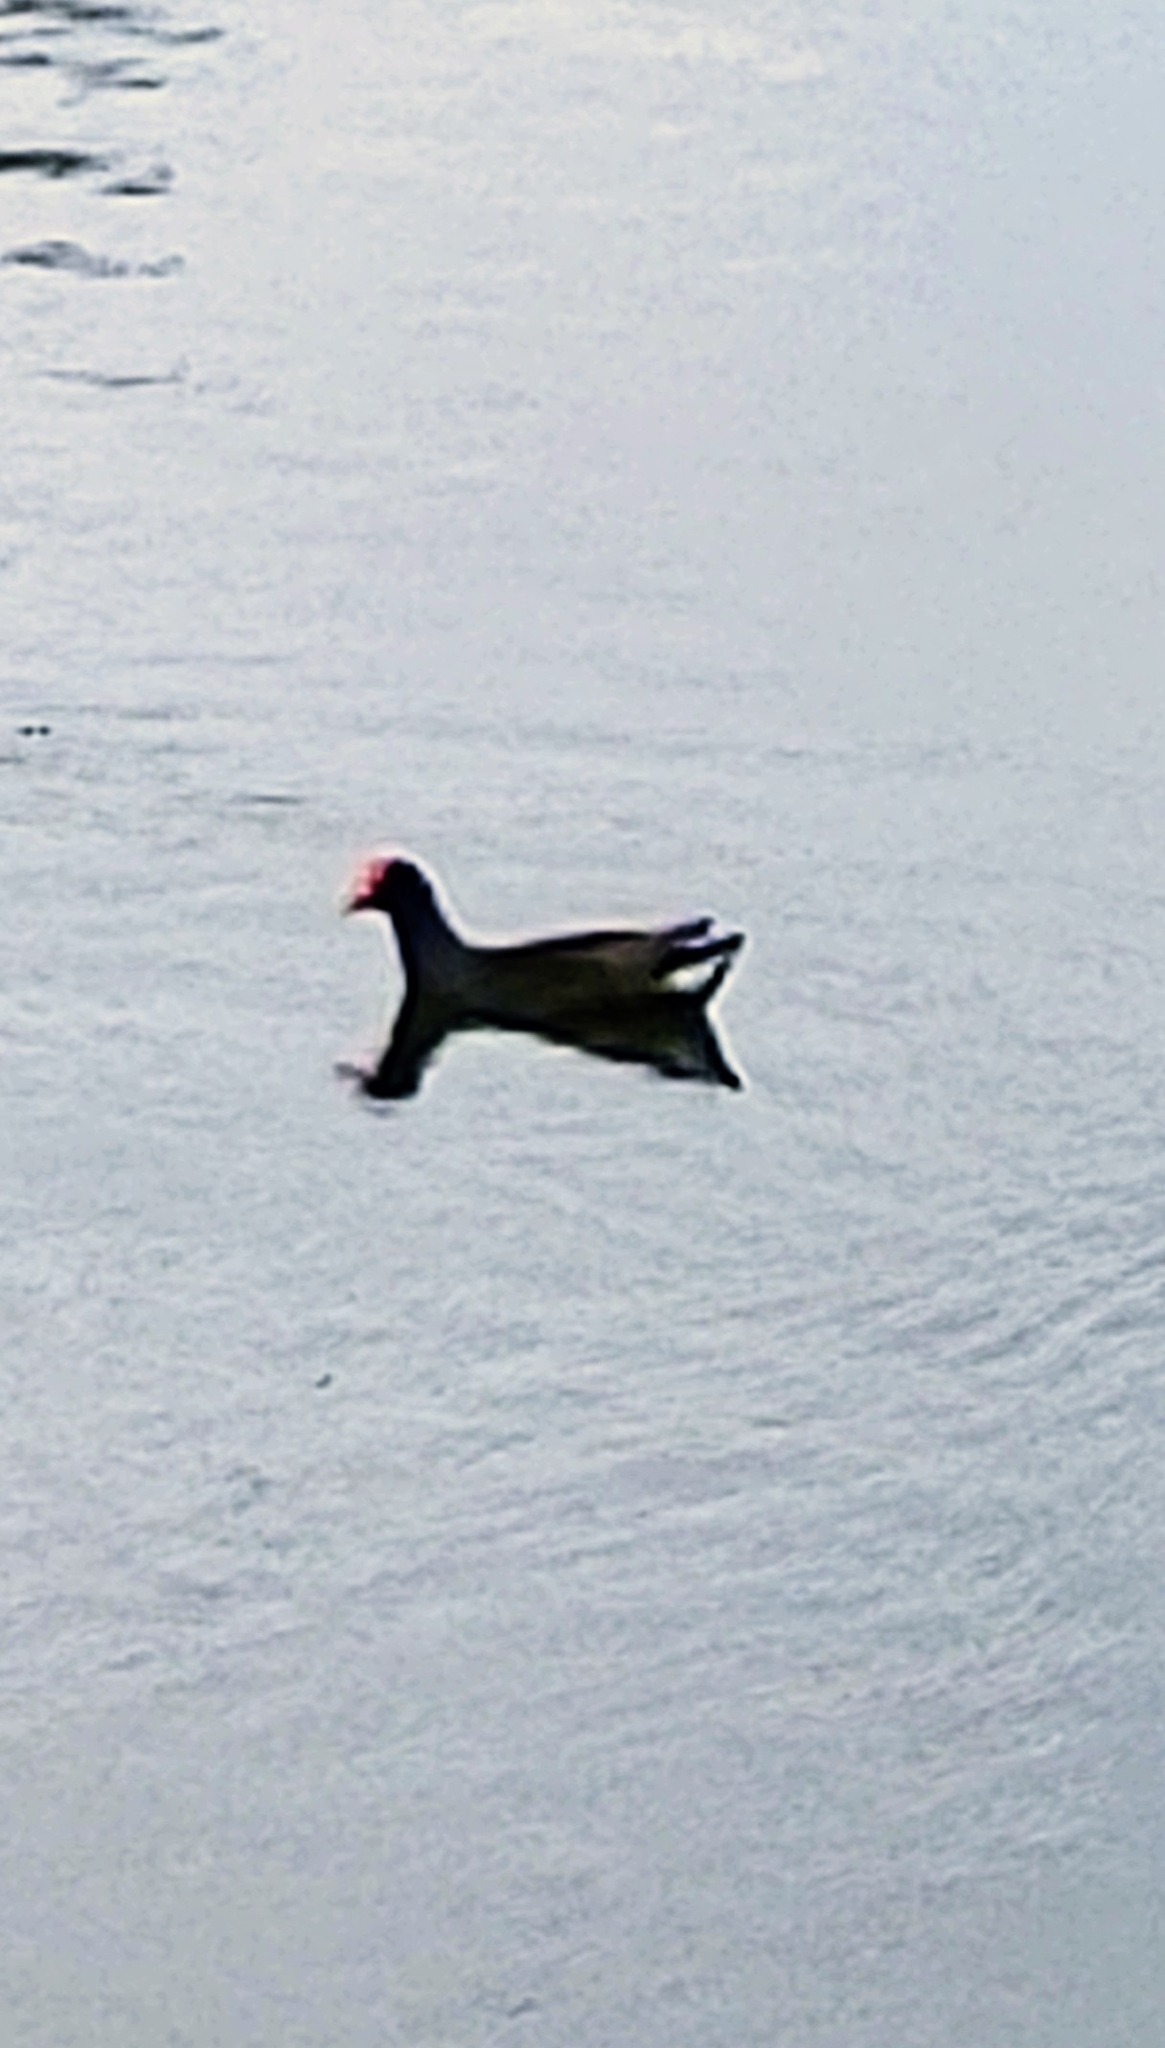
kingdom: Animalia
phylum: Chordata
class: Aves
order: Gruiformes
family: Rallidae
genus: Gallinula
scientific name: Gallinula chloropus
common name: Common moorhen
